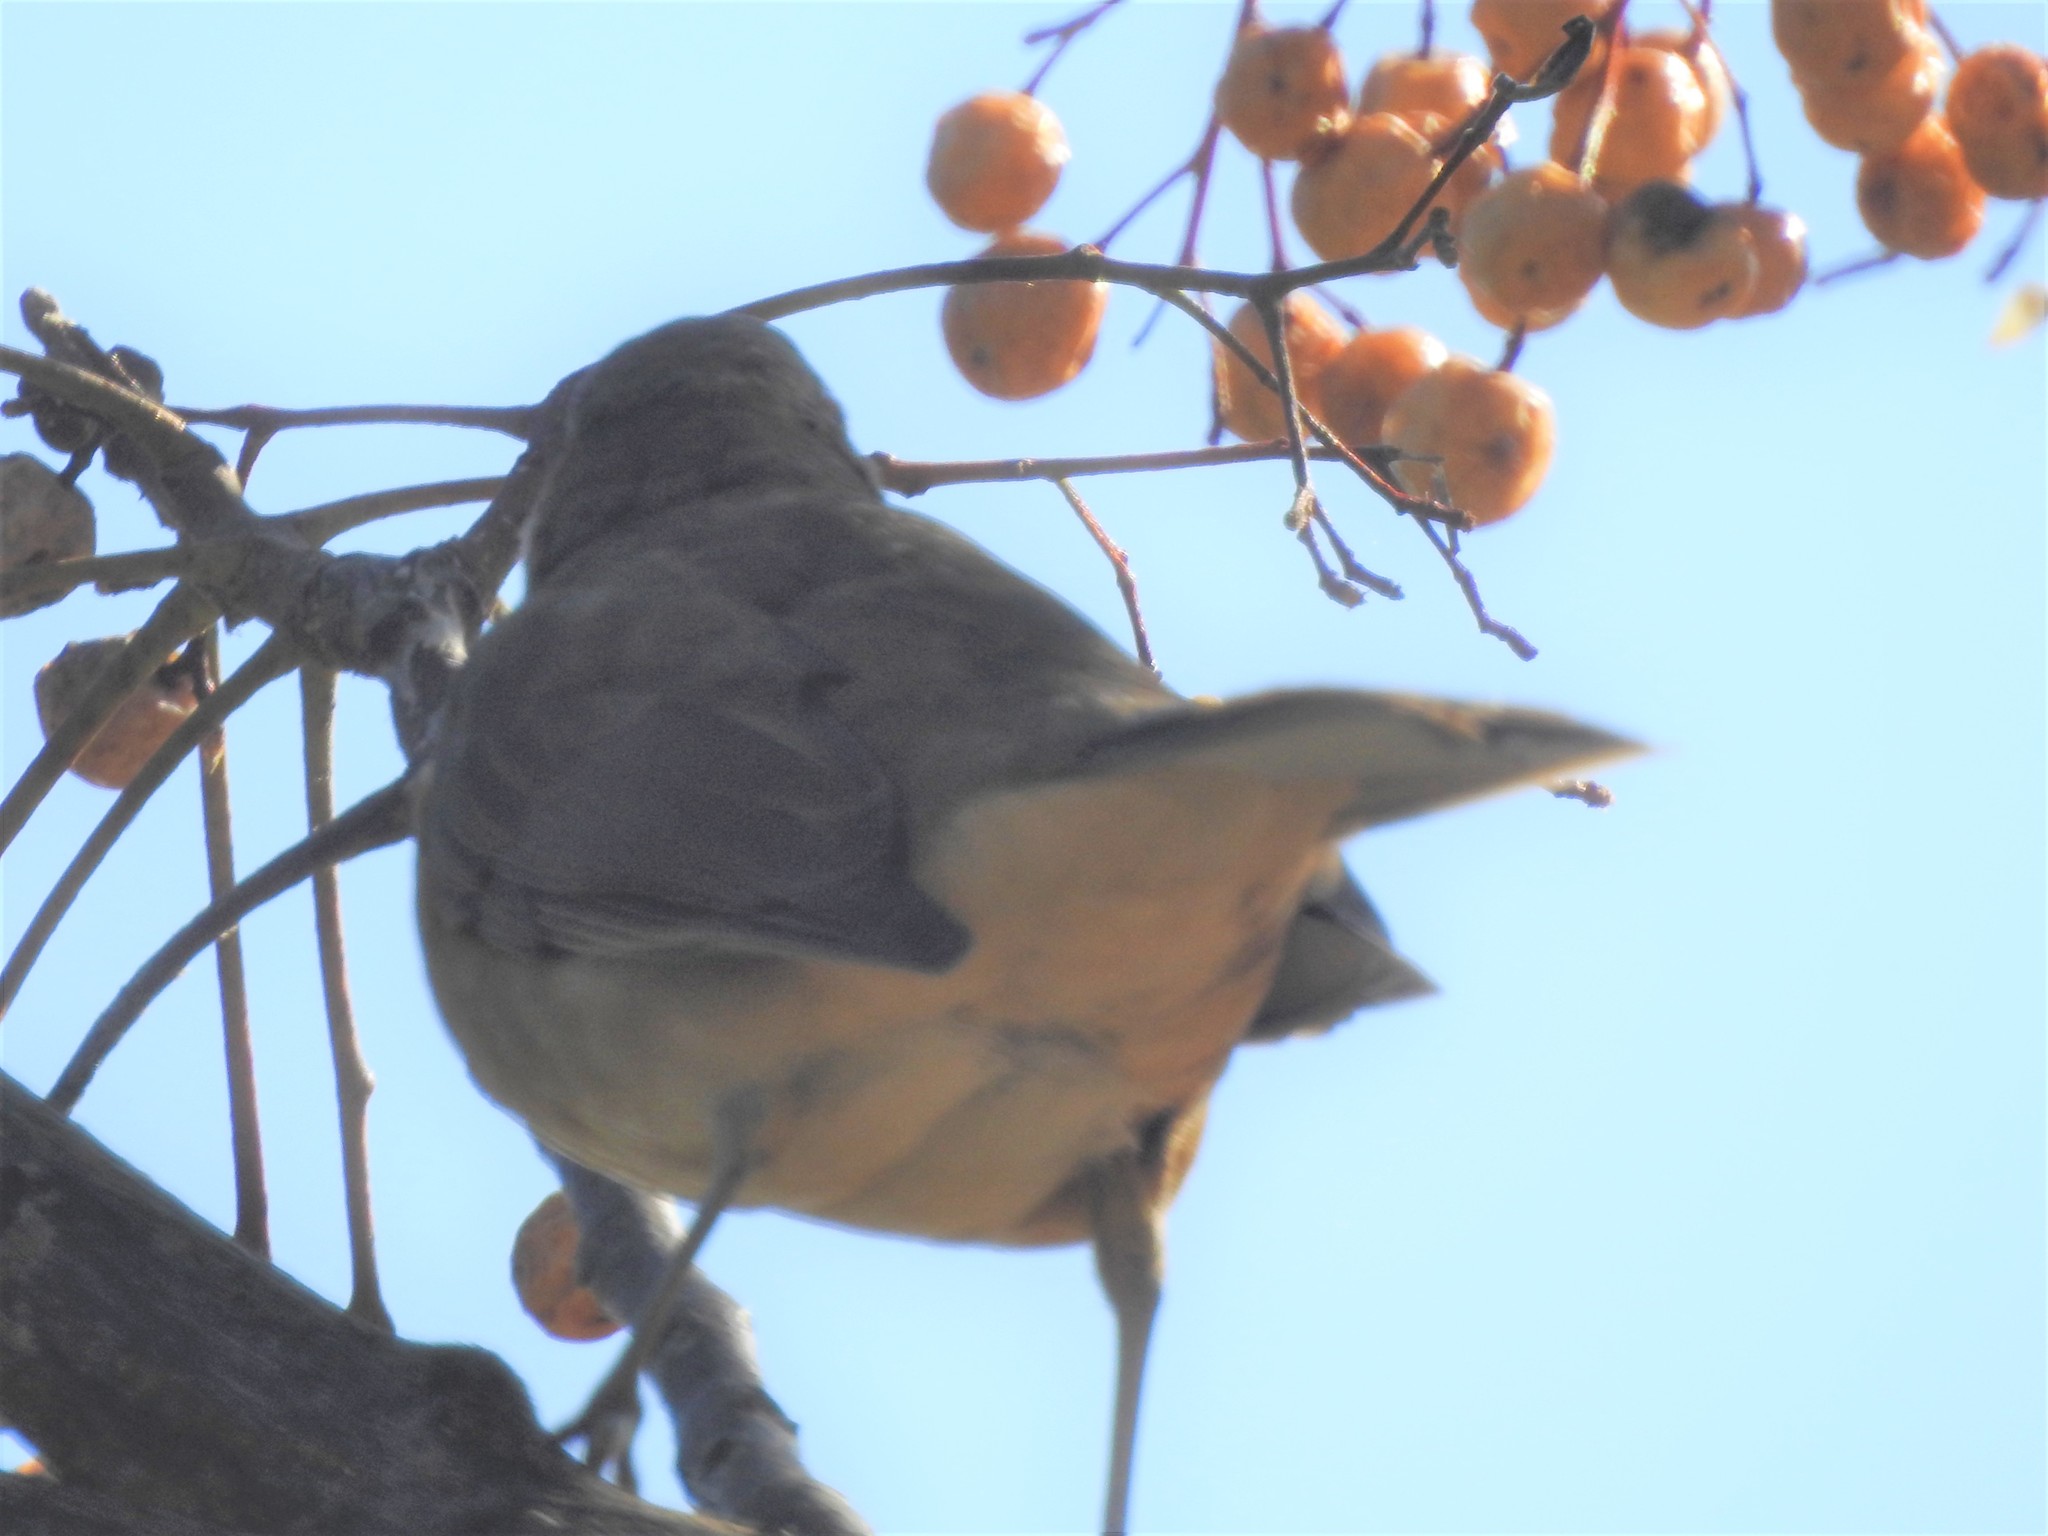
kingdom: Animalia
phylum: Chordata
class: Aves
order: Passeriformes
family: Turdidae
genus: Turdus
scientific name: Turdus grayi
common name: Clay-colored thrush
